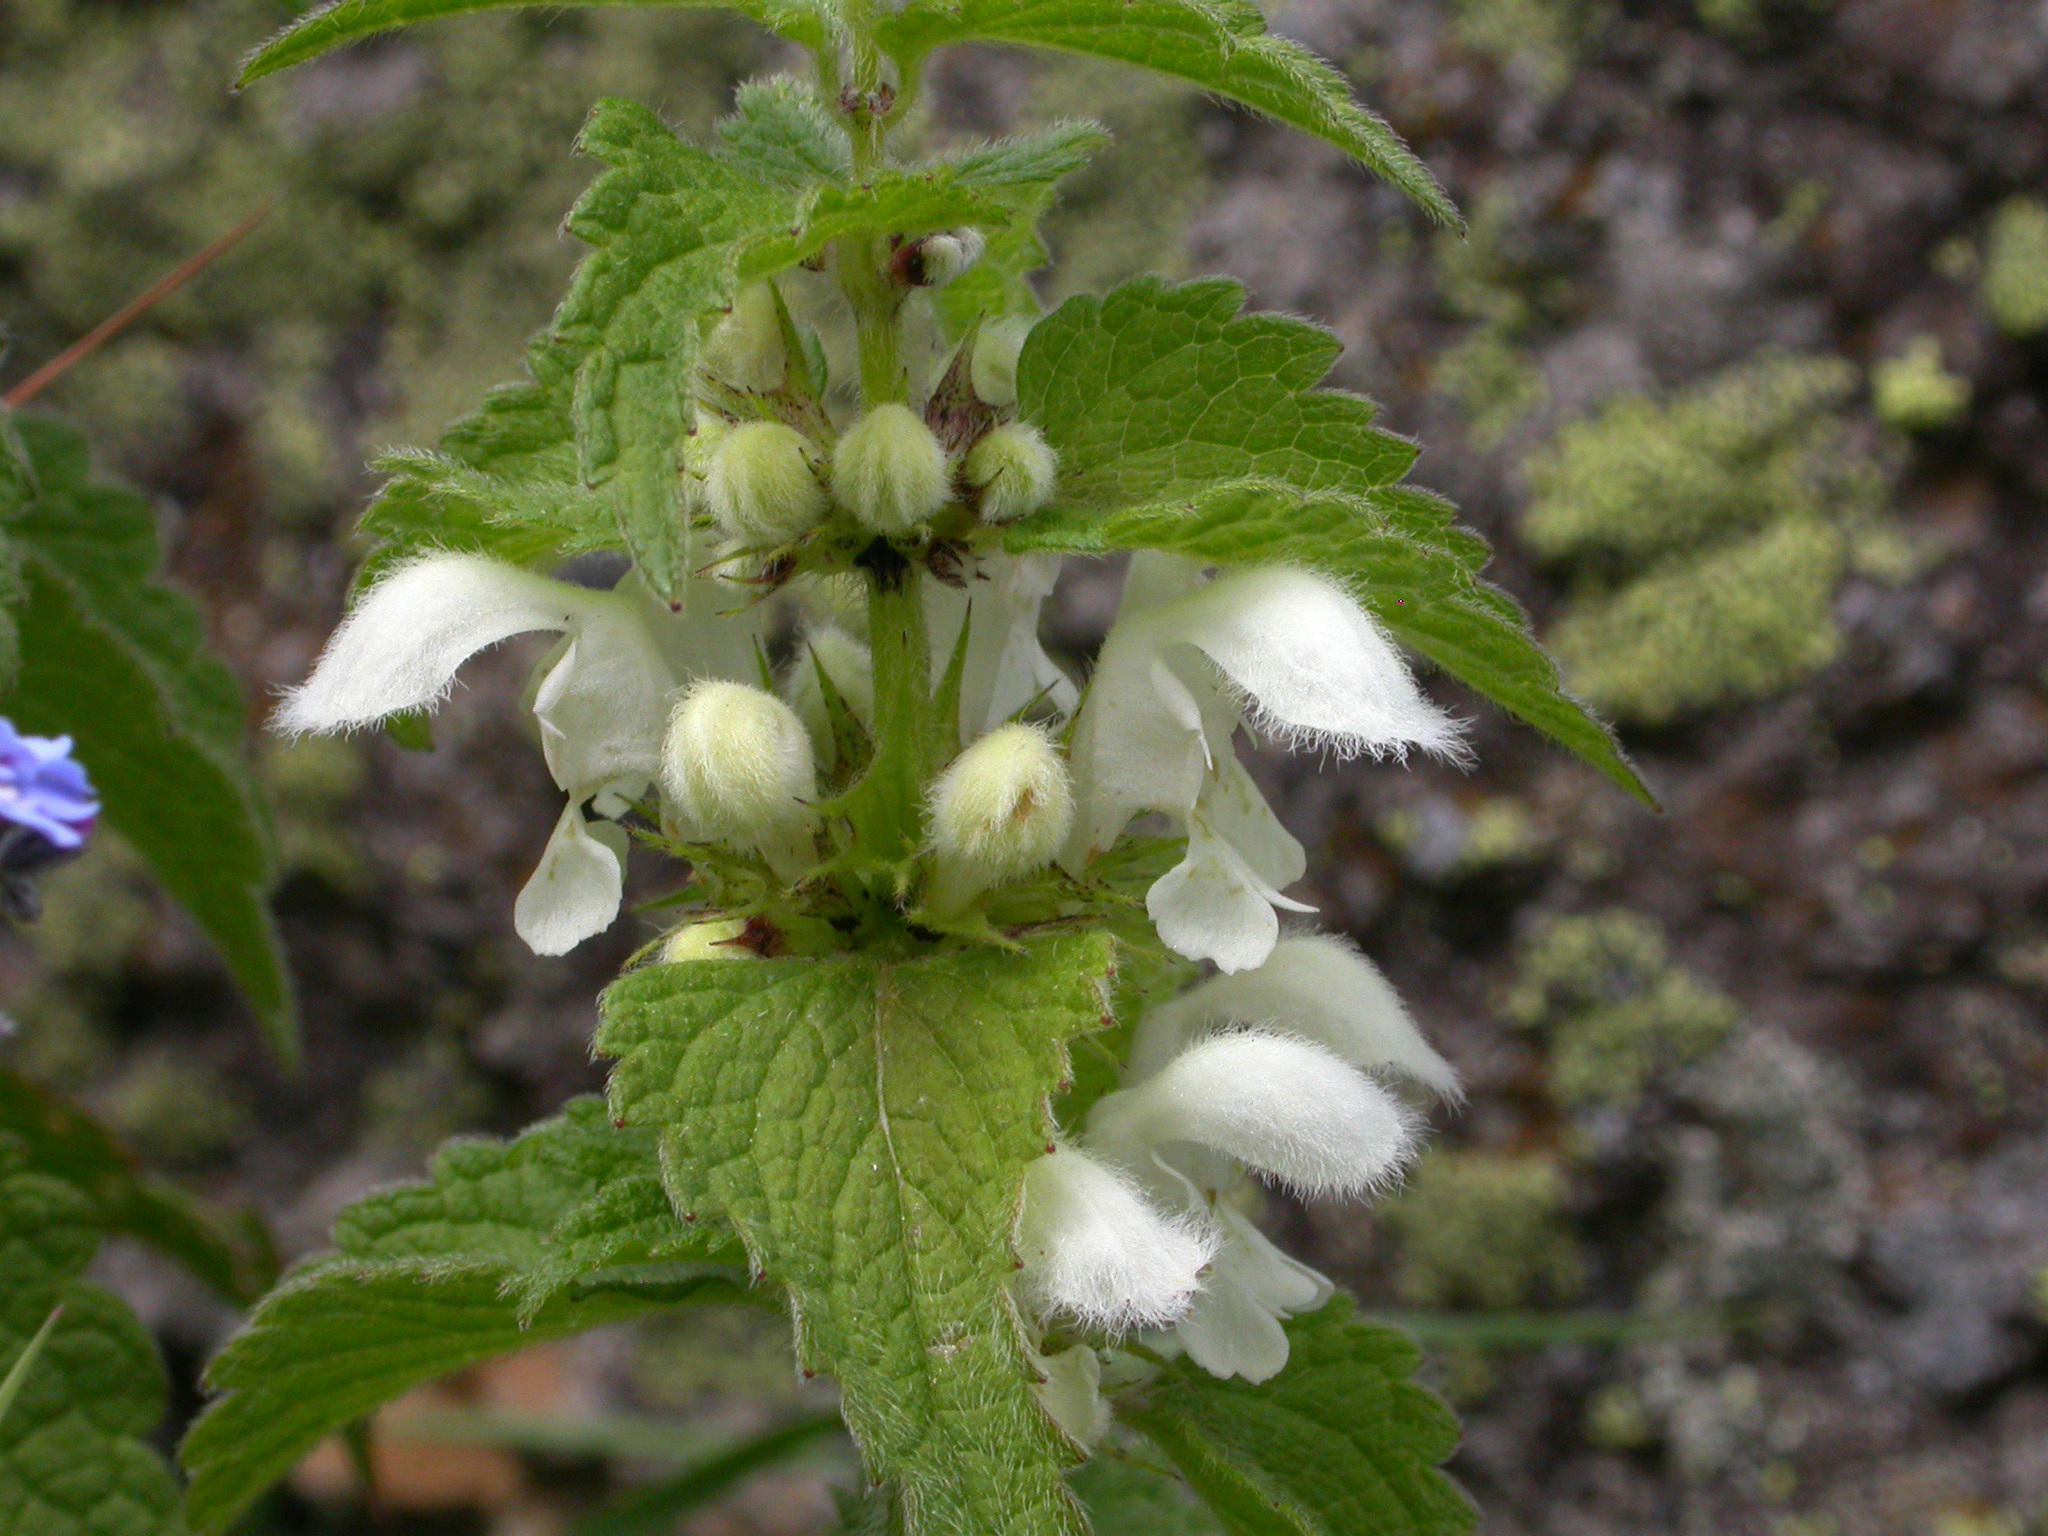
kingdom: Plantae
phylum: Tracheophyta
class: Magnoliopsida
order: Lamiales
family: Lamiaceae
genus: Lamium
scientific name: Lamium album
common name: White dead-nettle
